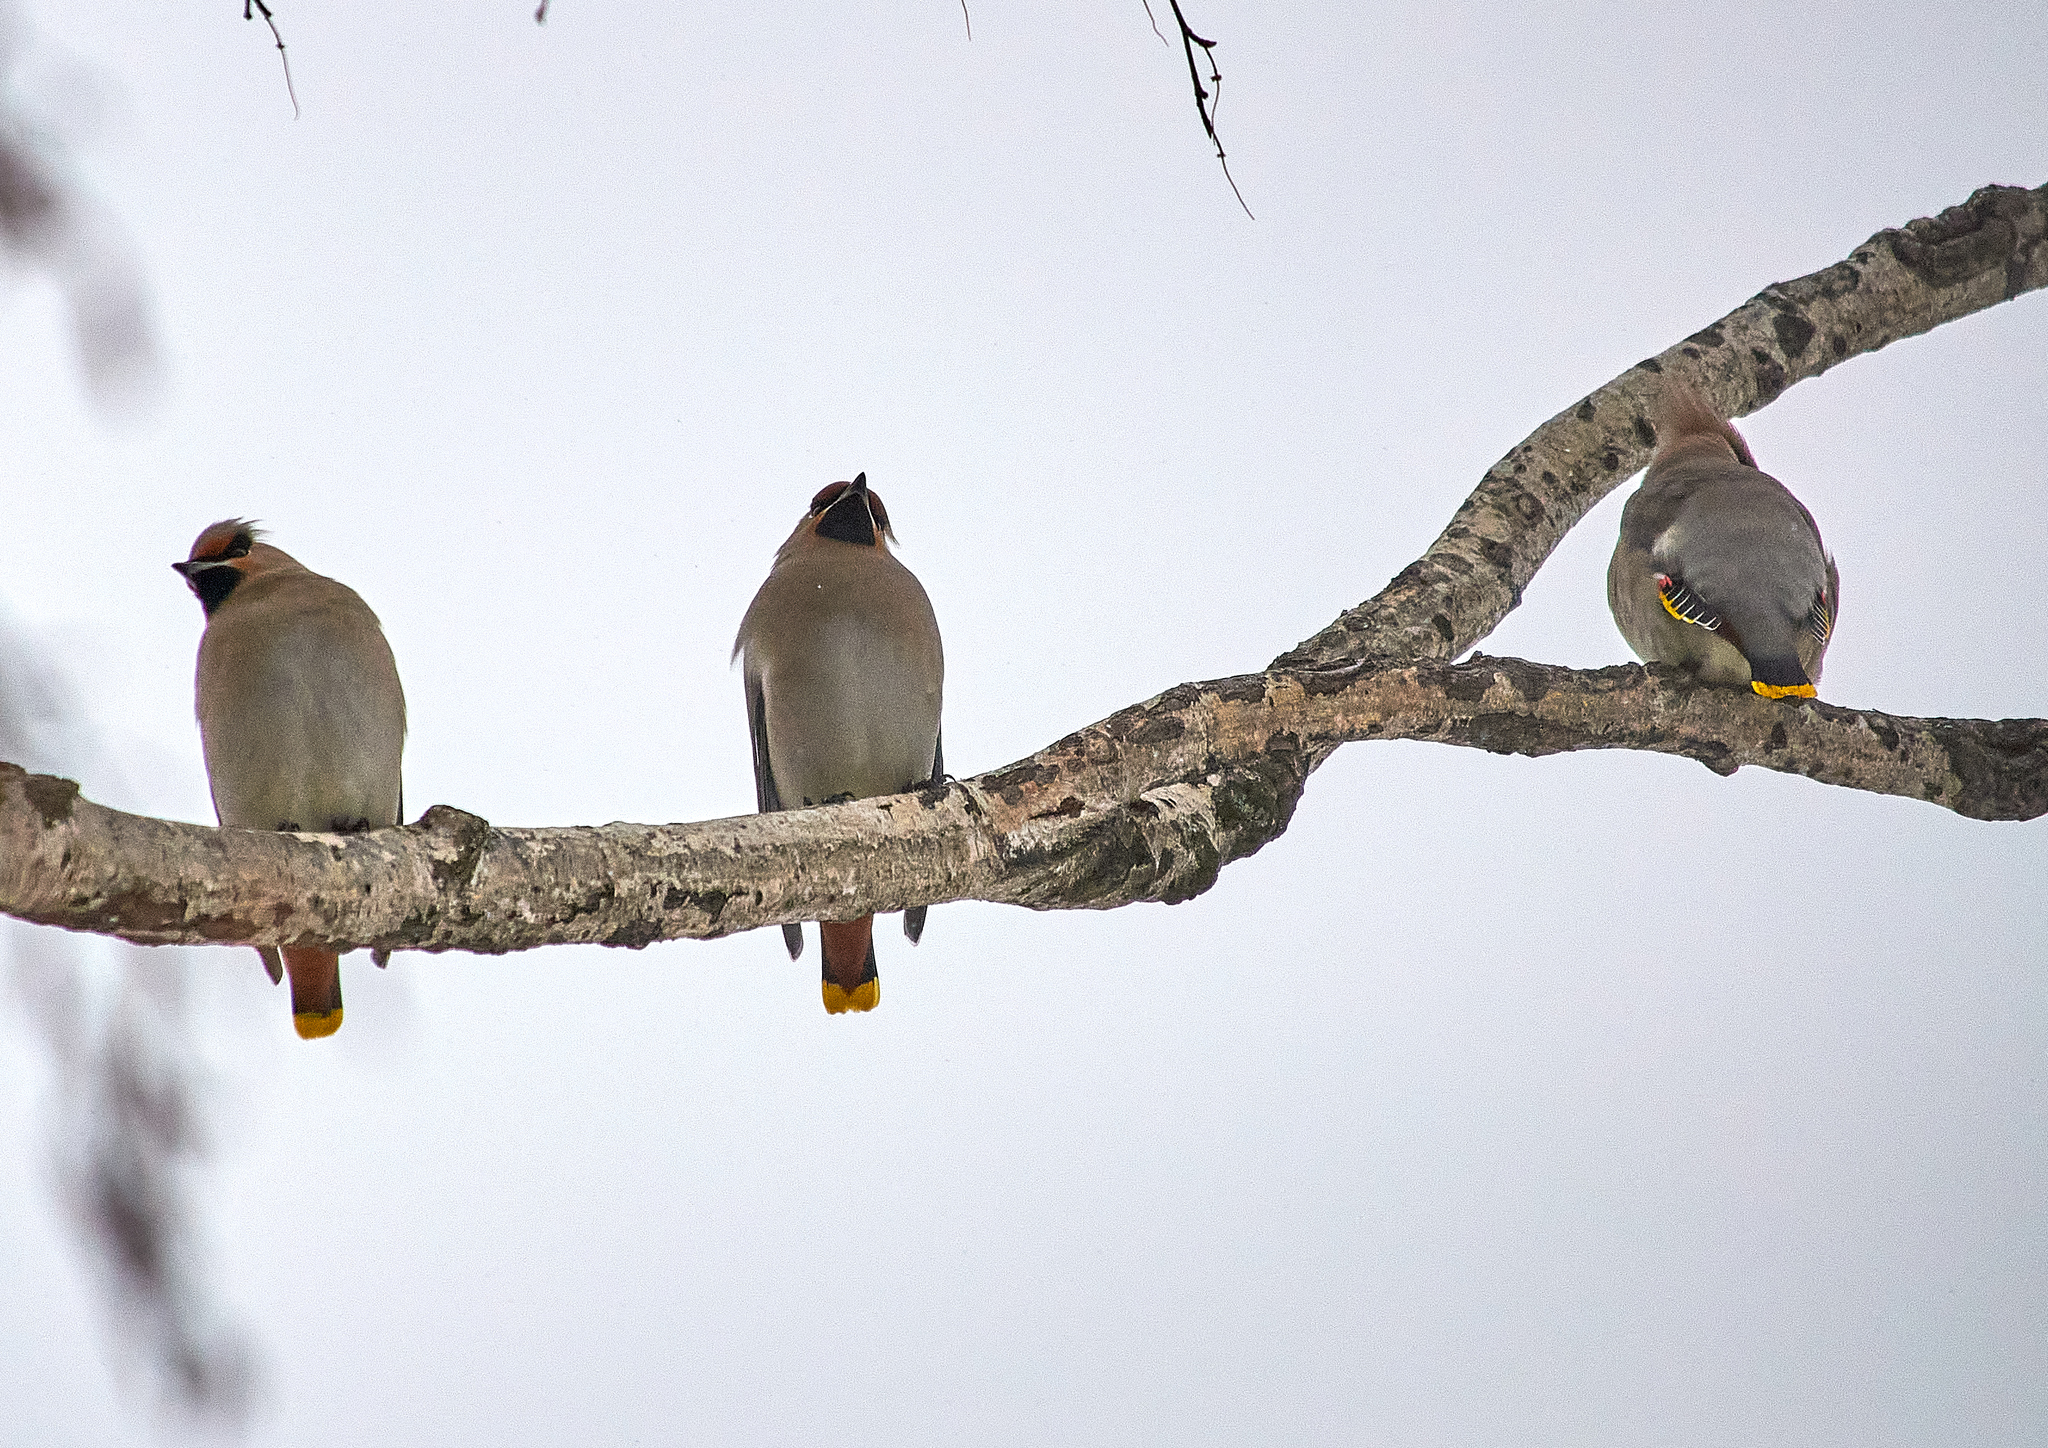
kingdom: Animalia
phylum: Chordata
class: Aves
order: Passeriformes
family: Bombycillidae
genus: Bombycilla
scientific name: Bombycilla garrulus
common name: Bohemian waxwing
